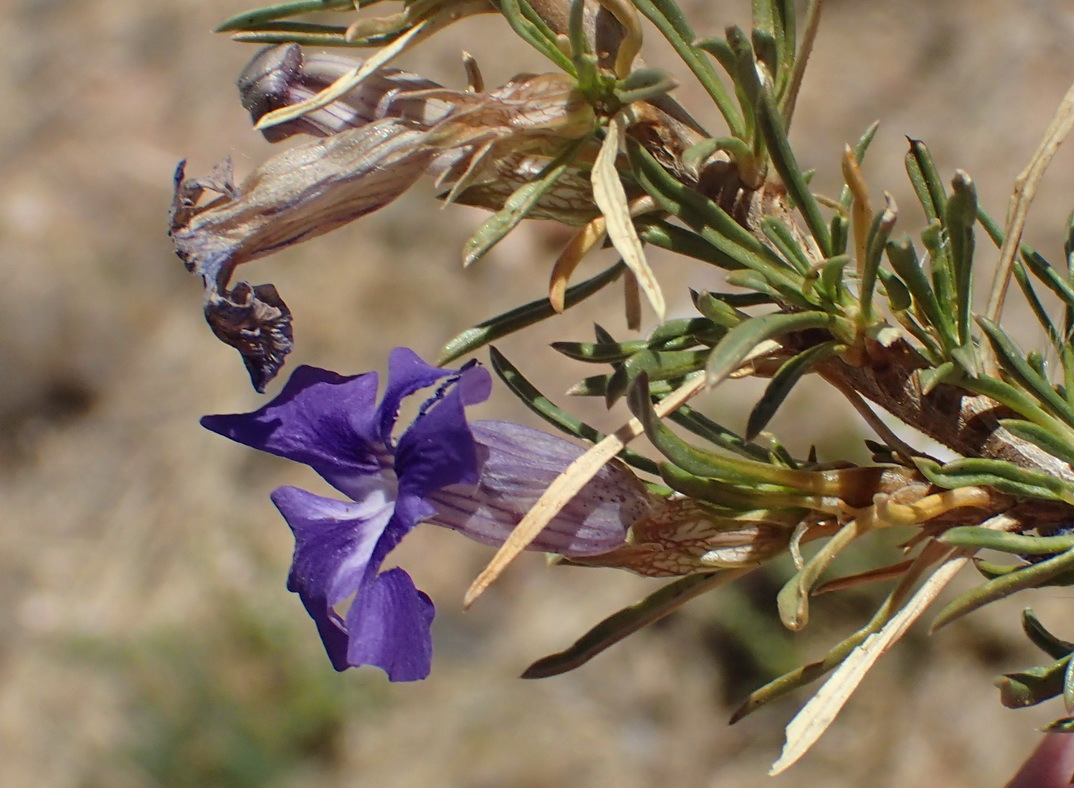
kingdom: Plantae
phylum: Tracheophyta
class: Magnoliopsida
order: Lamiales
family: Scrophulariaceae
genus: Aptosimum
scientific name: Aptosimum spinescens
